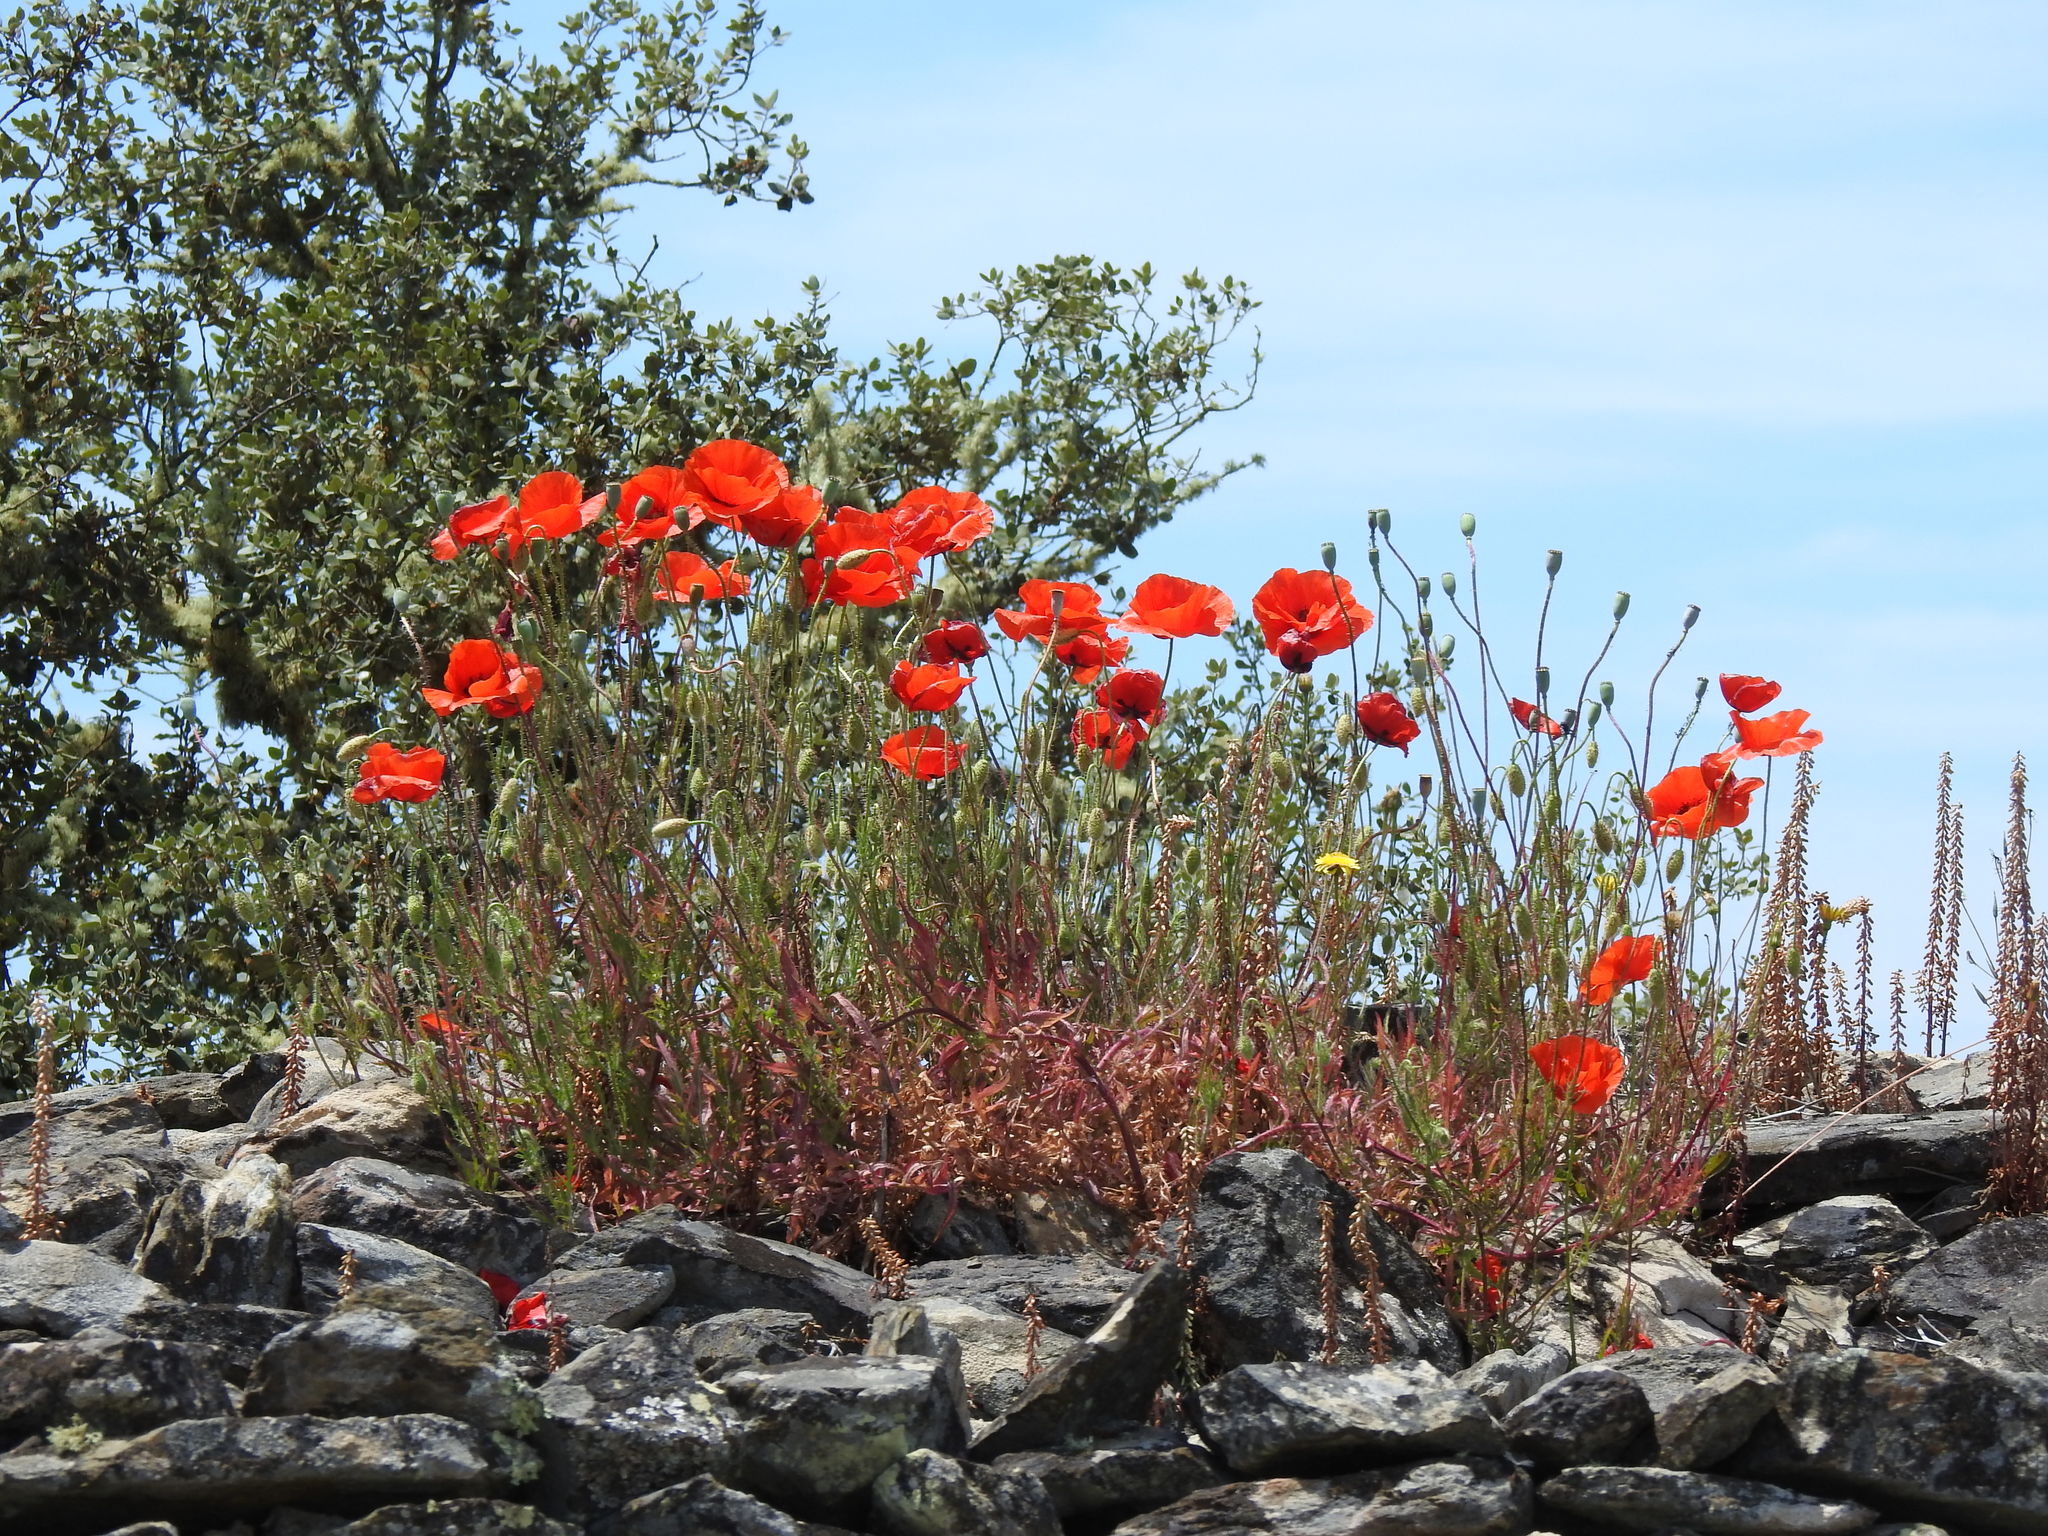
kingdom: Plantae
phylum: Tracheophyta
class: Magnoliopsida
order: Ranunculales
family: Papaveraceae
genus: Papaver
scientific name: Papaver rhoeas
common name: Corn poppy
